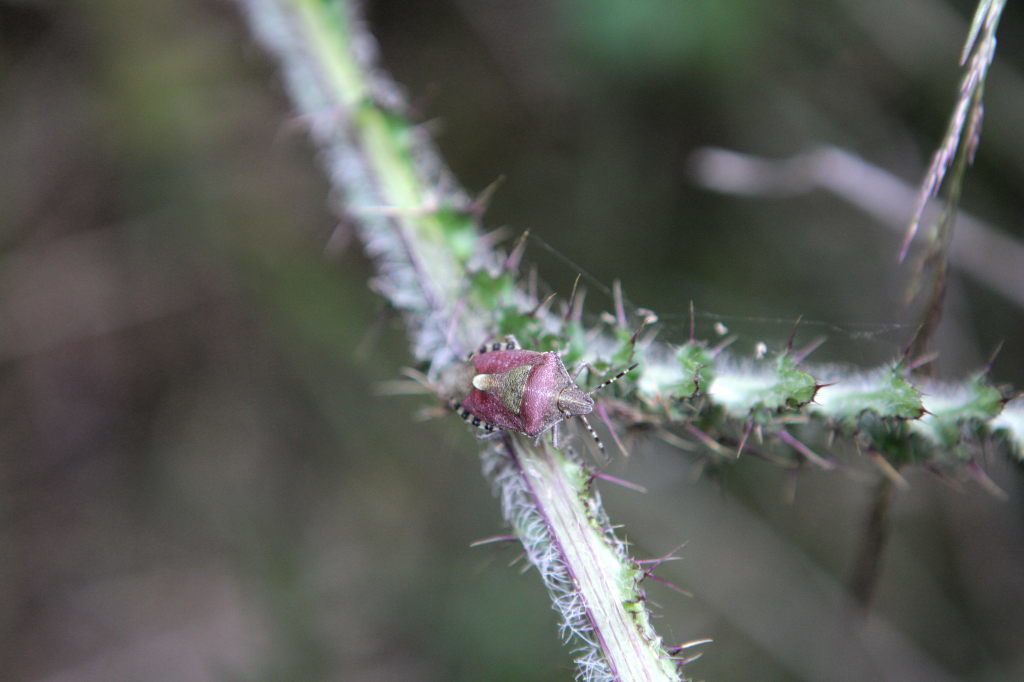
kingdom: Animalia
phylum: Arthropoda
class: Insecta
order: Hemiptera
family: Pentatomidae
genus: Dolycoris
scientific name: Dolycoris baccarum
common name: Sloe bug
